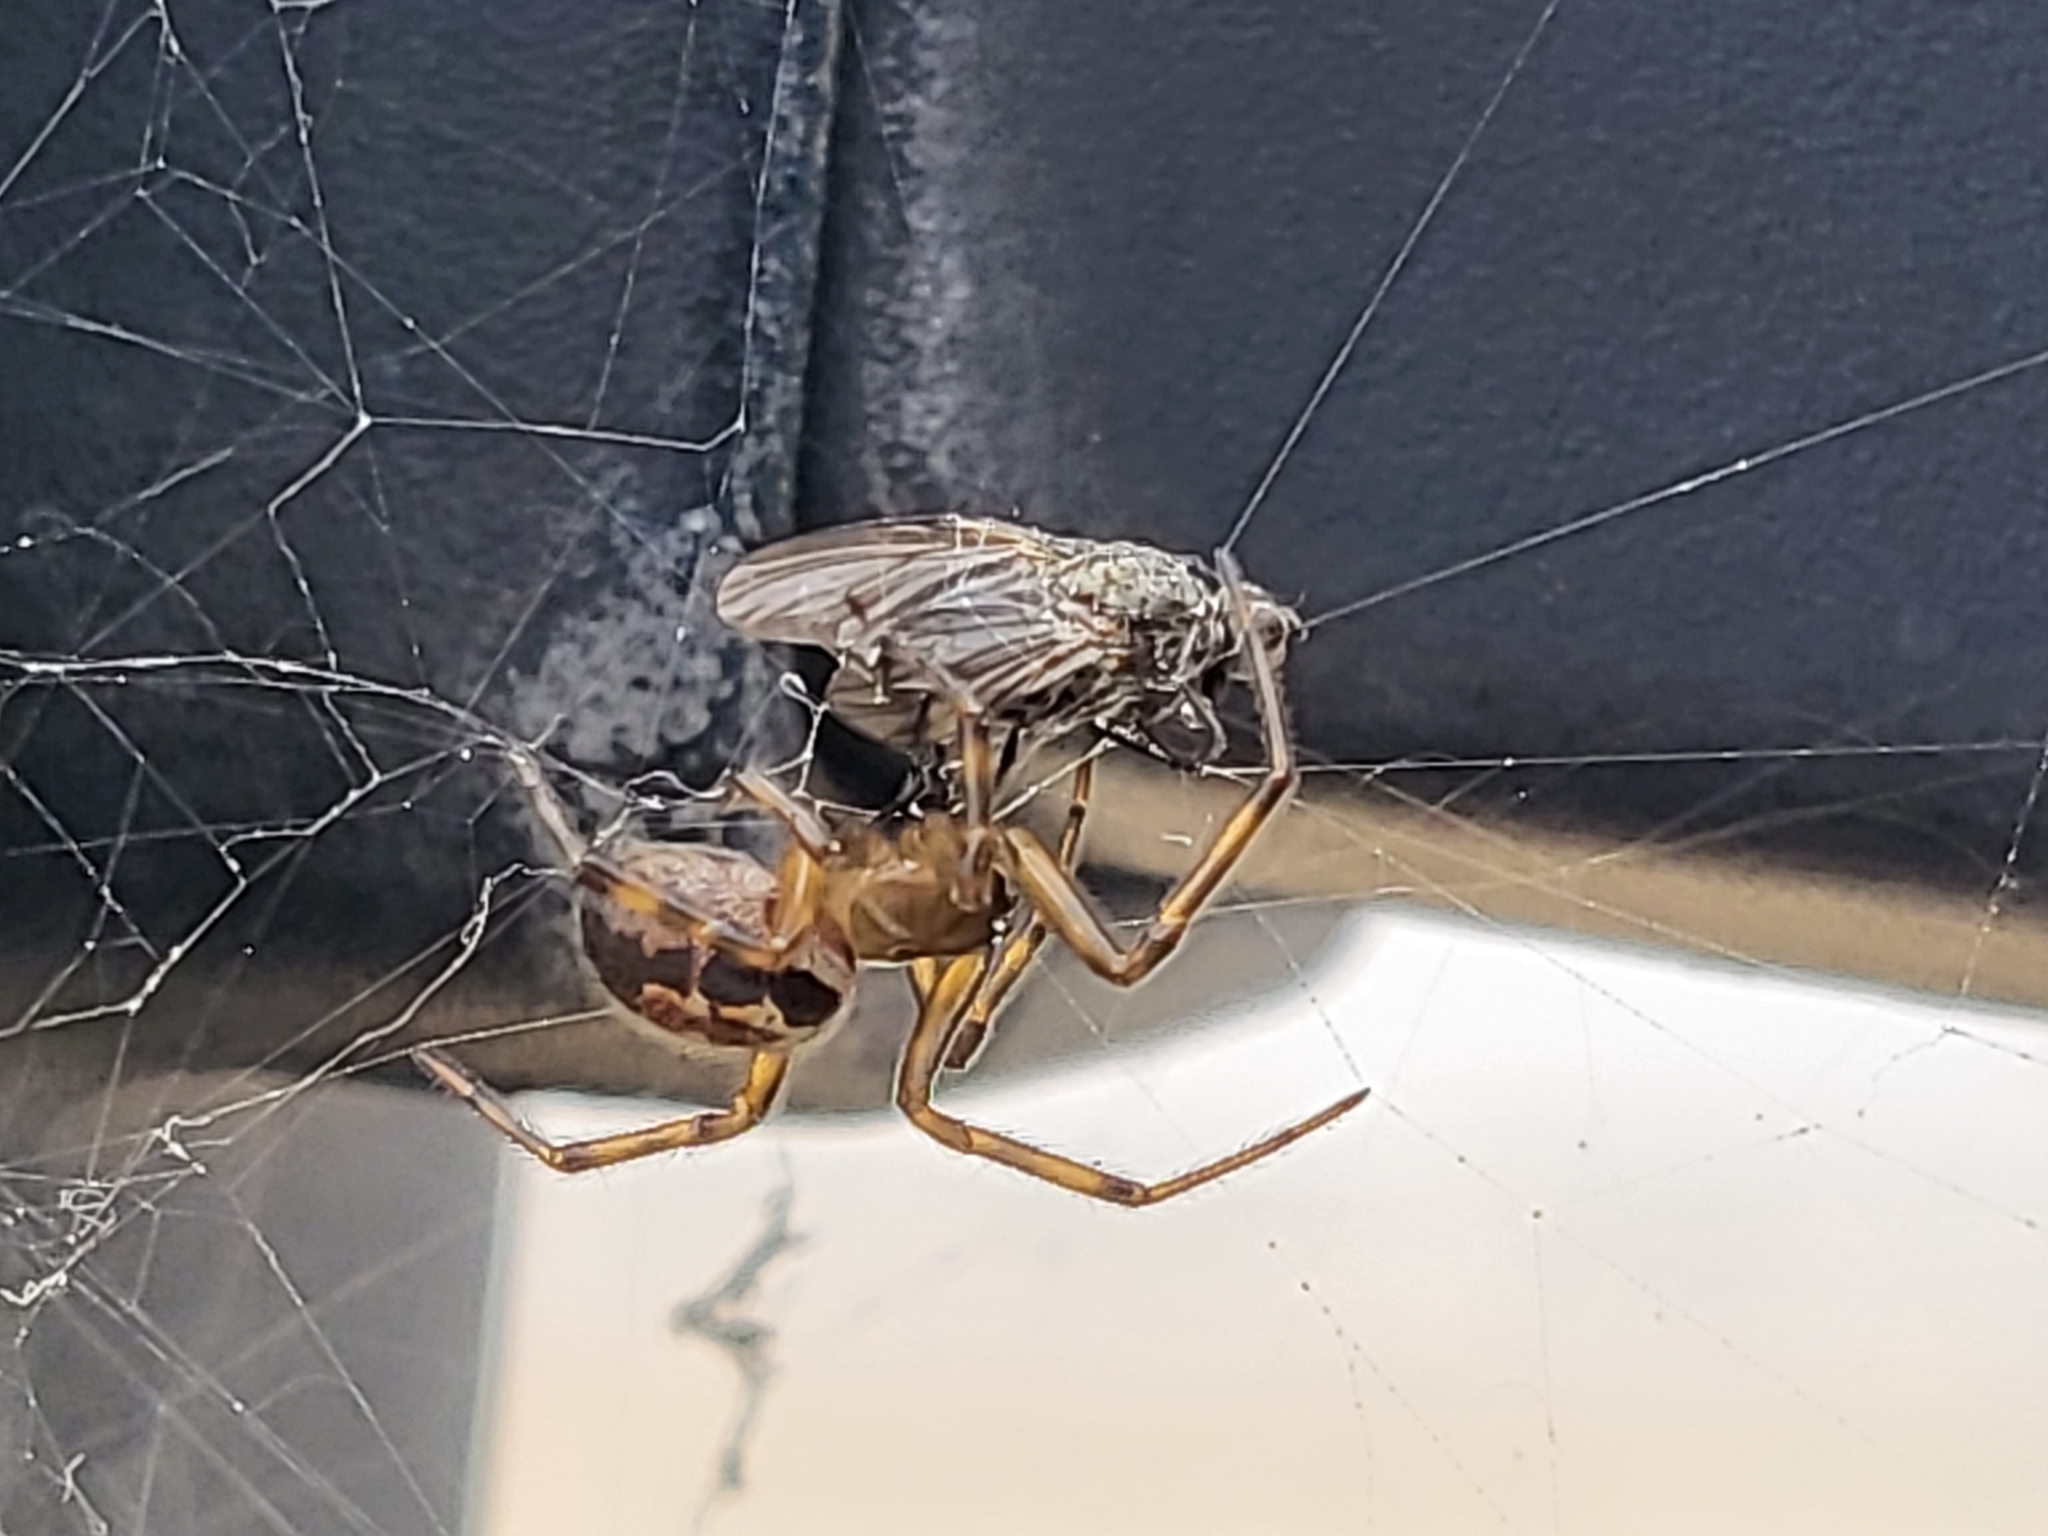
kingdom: Animalia
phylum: Arthropoda
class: Arachnida
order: Araneae
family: Theridiidae
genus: Steatoda
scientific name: Steatoda nobilis
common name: Cobweb weaver
